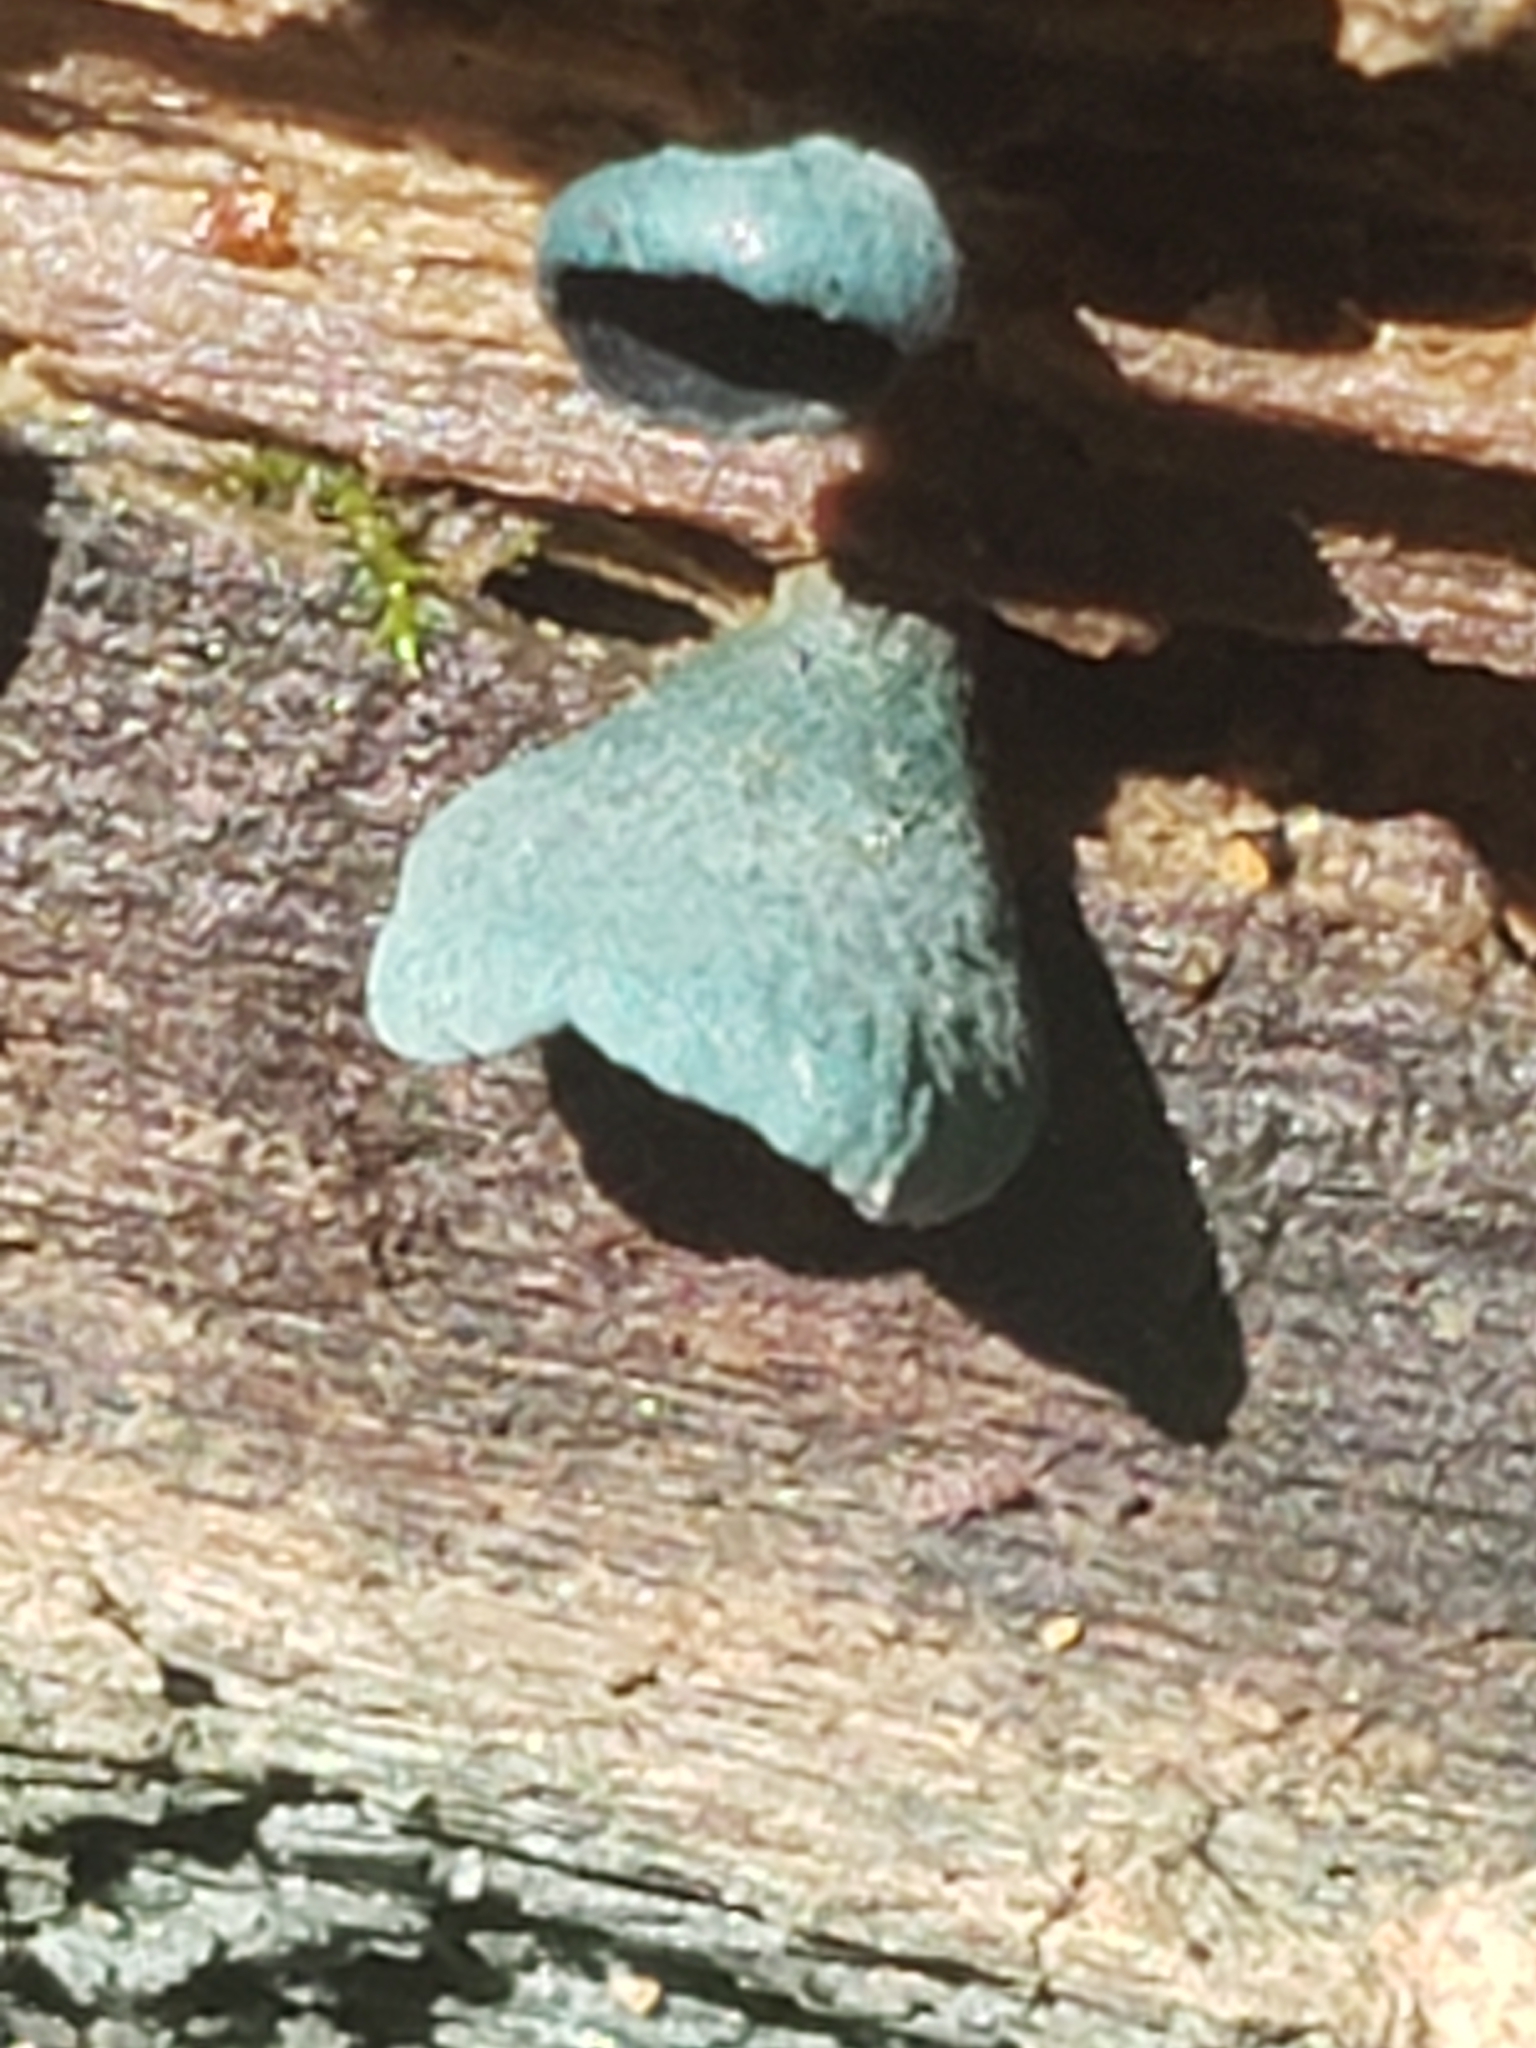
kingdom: Fungi
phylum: Ascomycota
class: Leotiomycetes
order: Helotiales
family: Chlorociboriaceae
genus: Chlorociboria
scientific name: Chlorociboria aeruginascens
